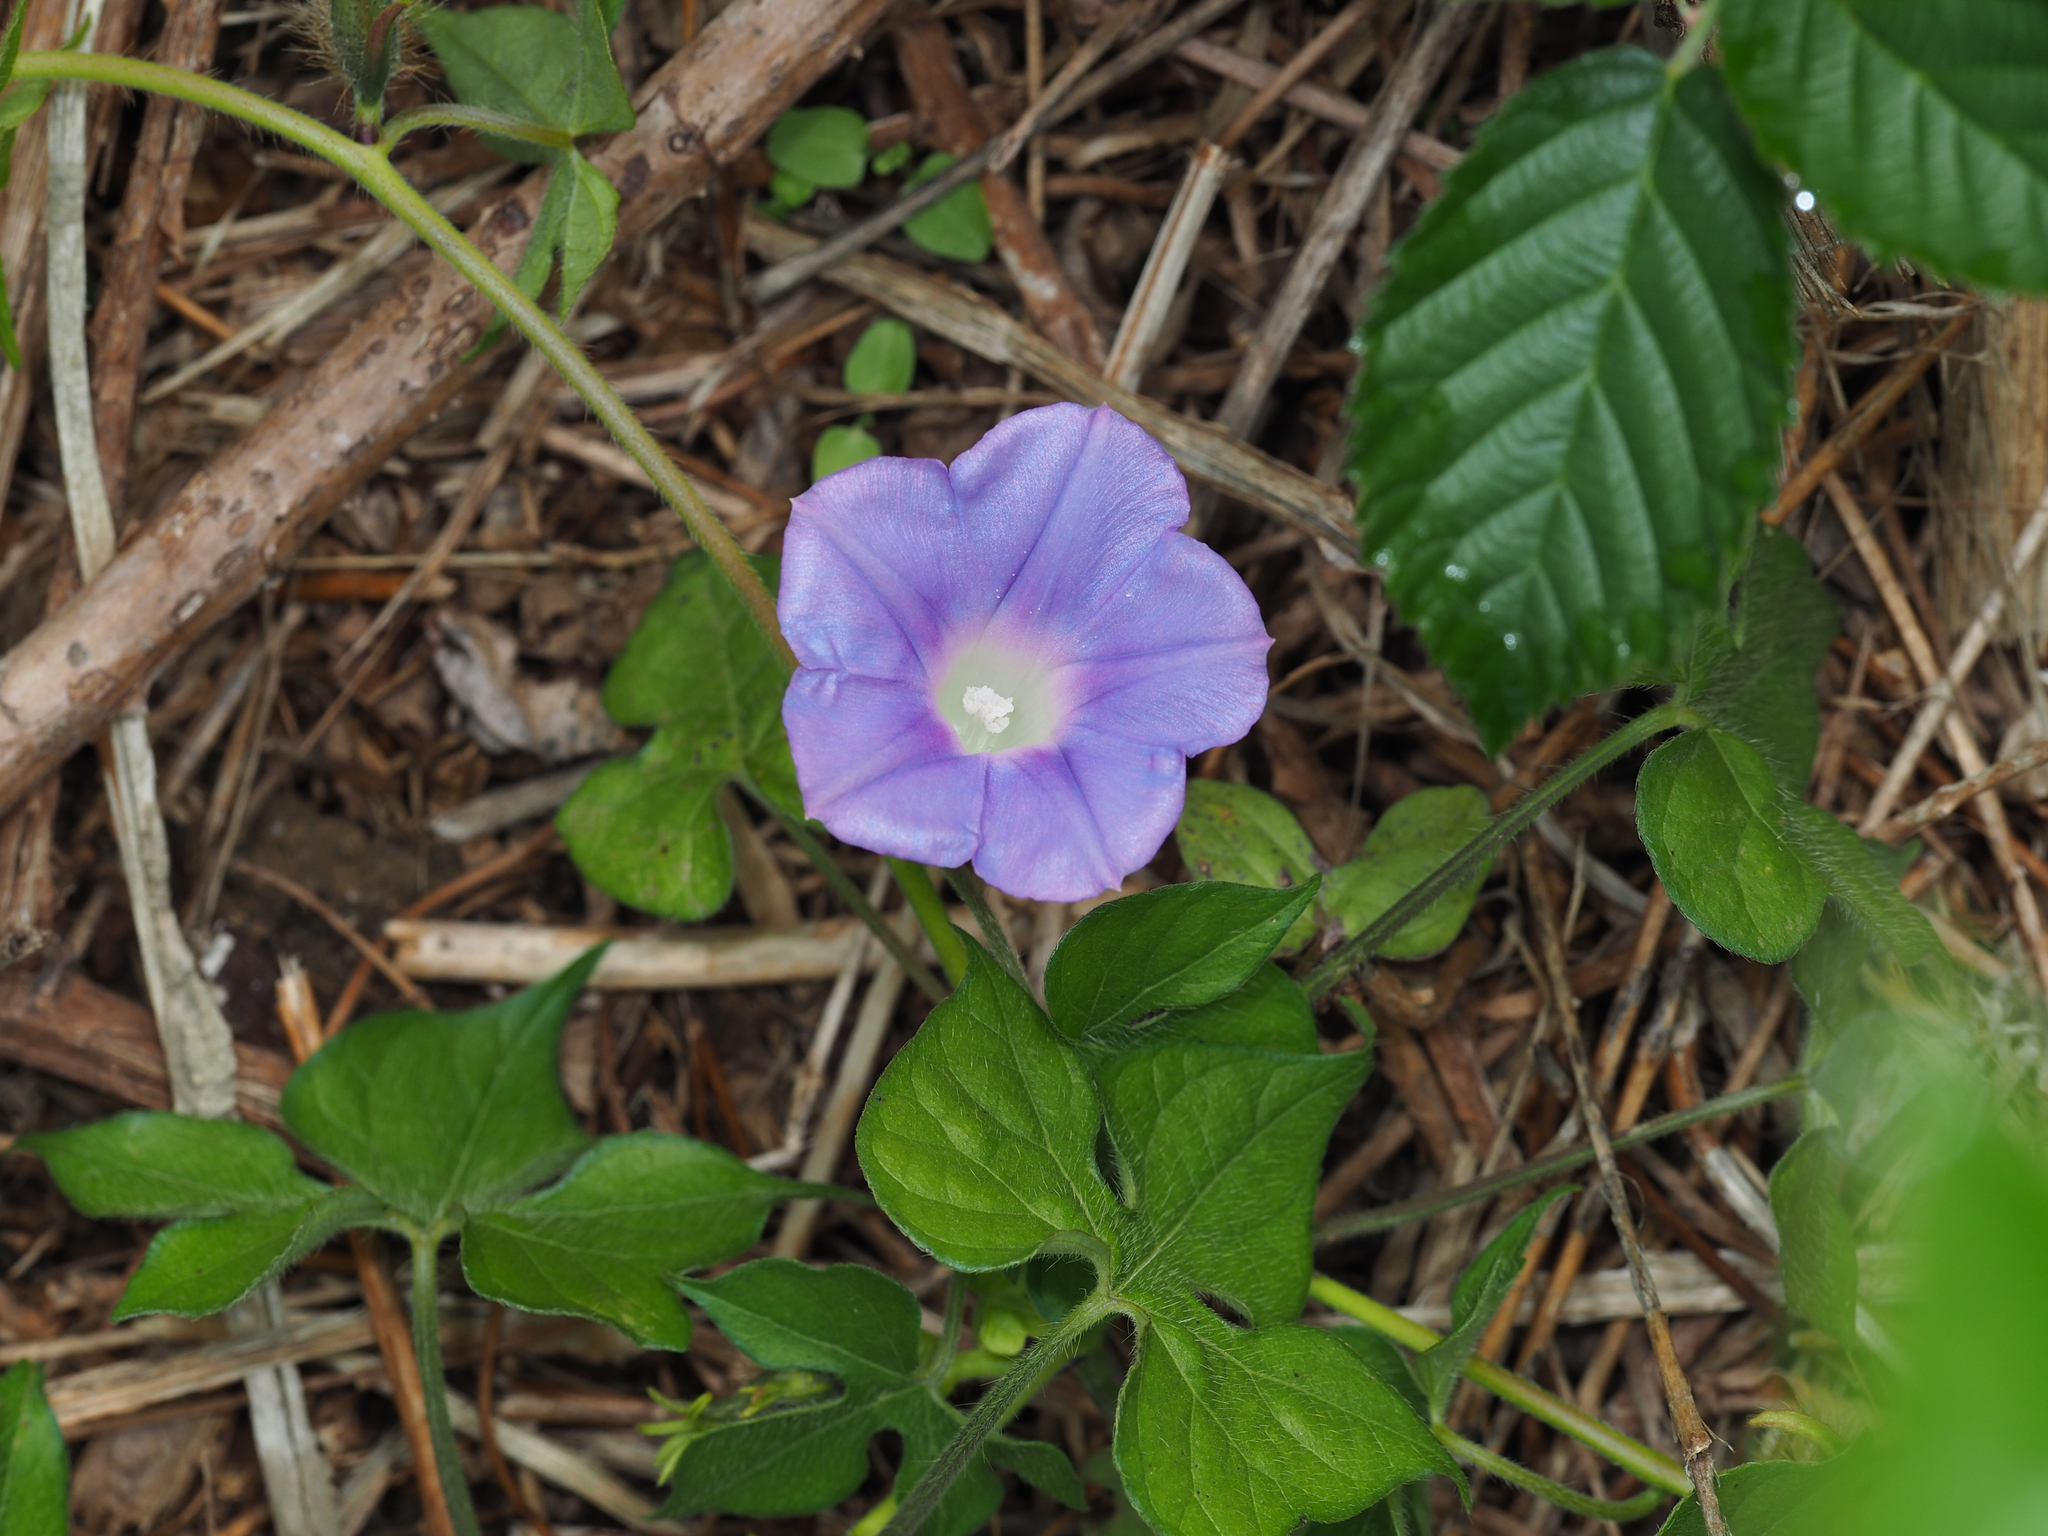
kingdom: Plantae
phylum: Tracheophyta
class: Magnoliopsida
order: Solanales
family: Convolvulaceae
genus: Ipomoea
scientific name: Ipomoea hederacea
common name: Ivy-leaved morning-glory
